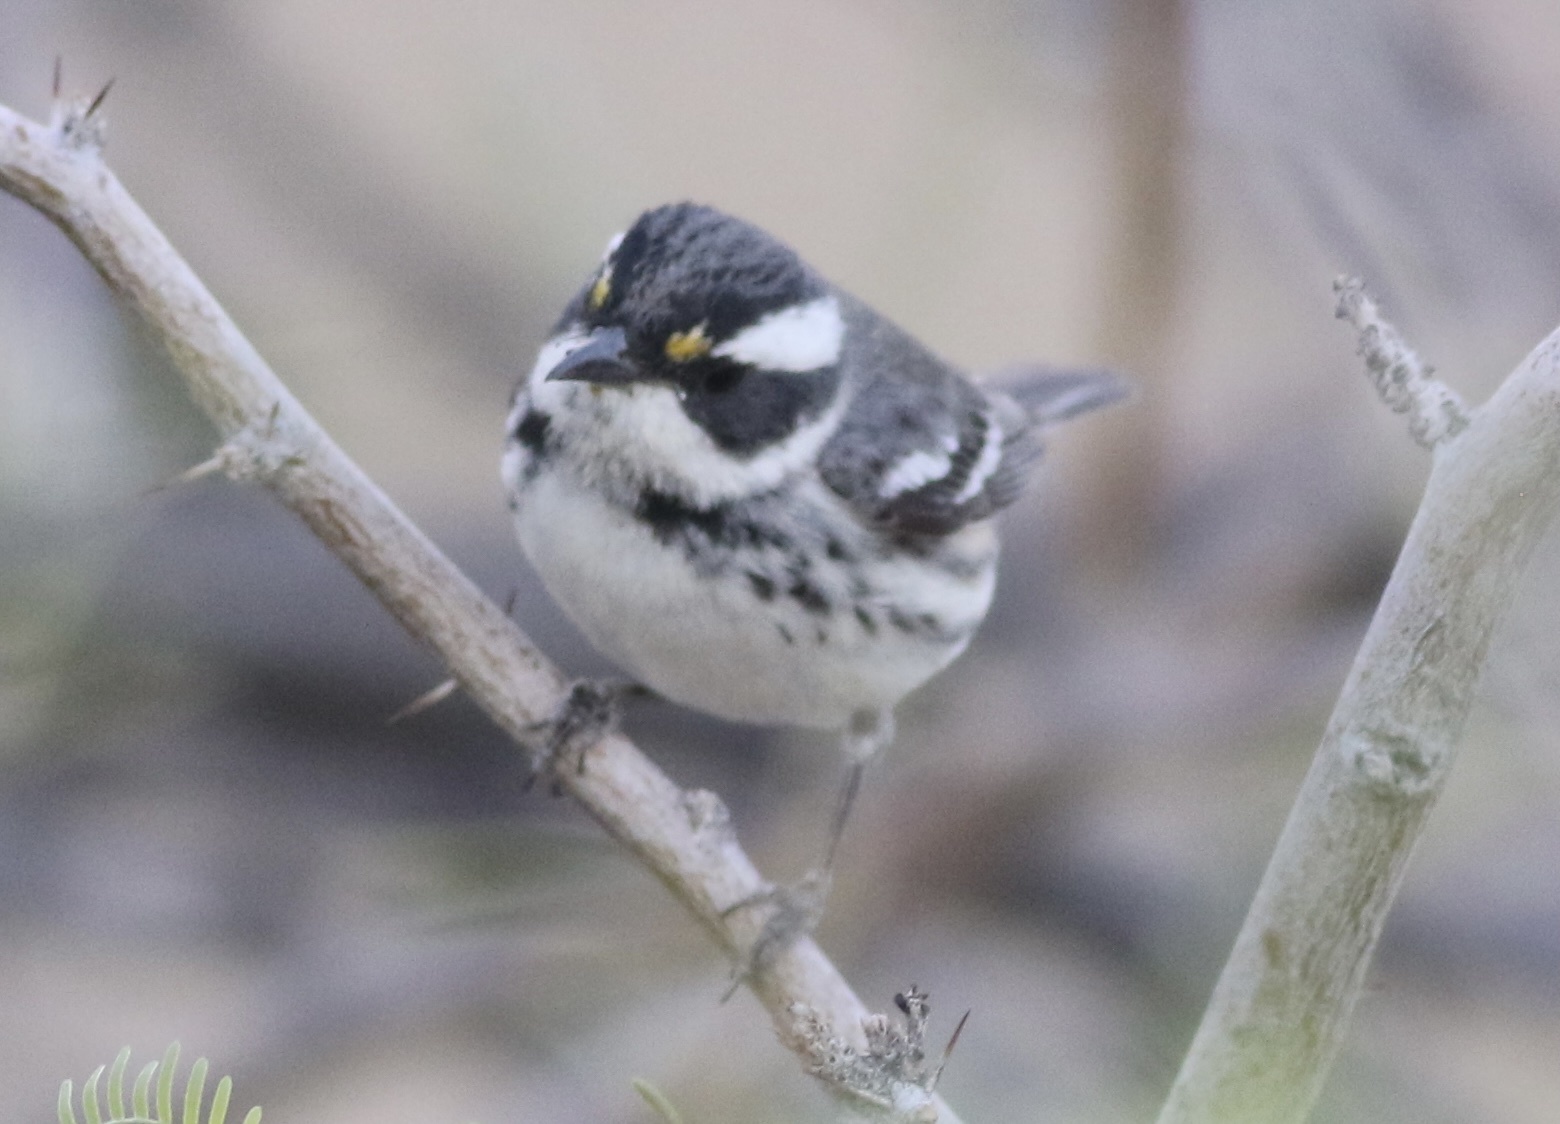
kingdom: Animalia
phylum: Chordata
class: Aves
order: Passeriformes
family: Parulidae
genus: Setophaga
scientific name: Setophaga nigrescens
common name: Black-throated gray warbler
